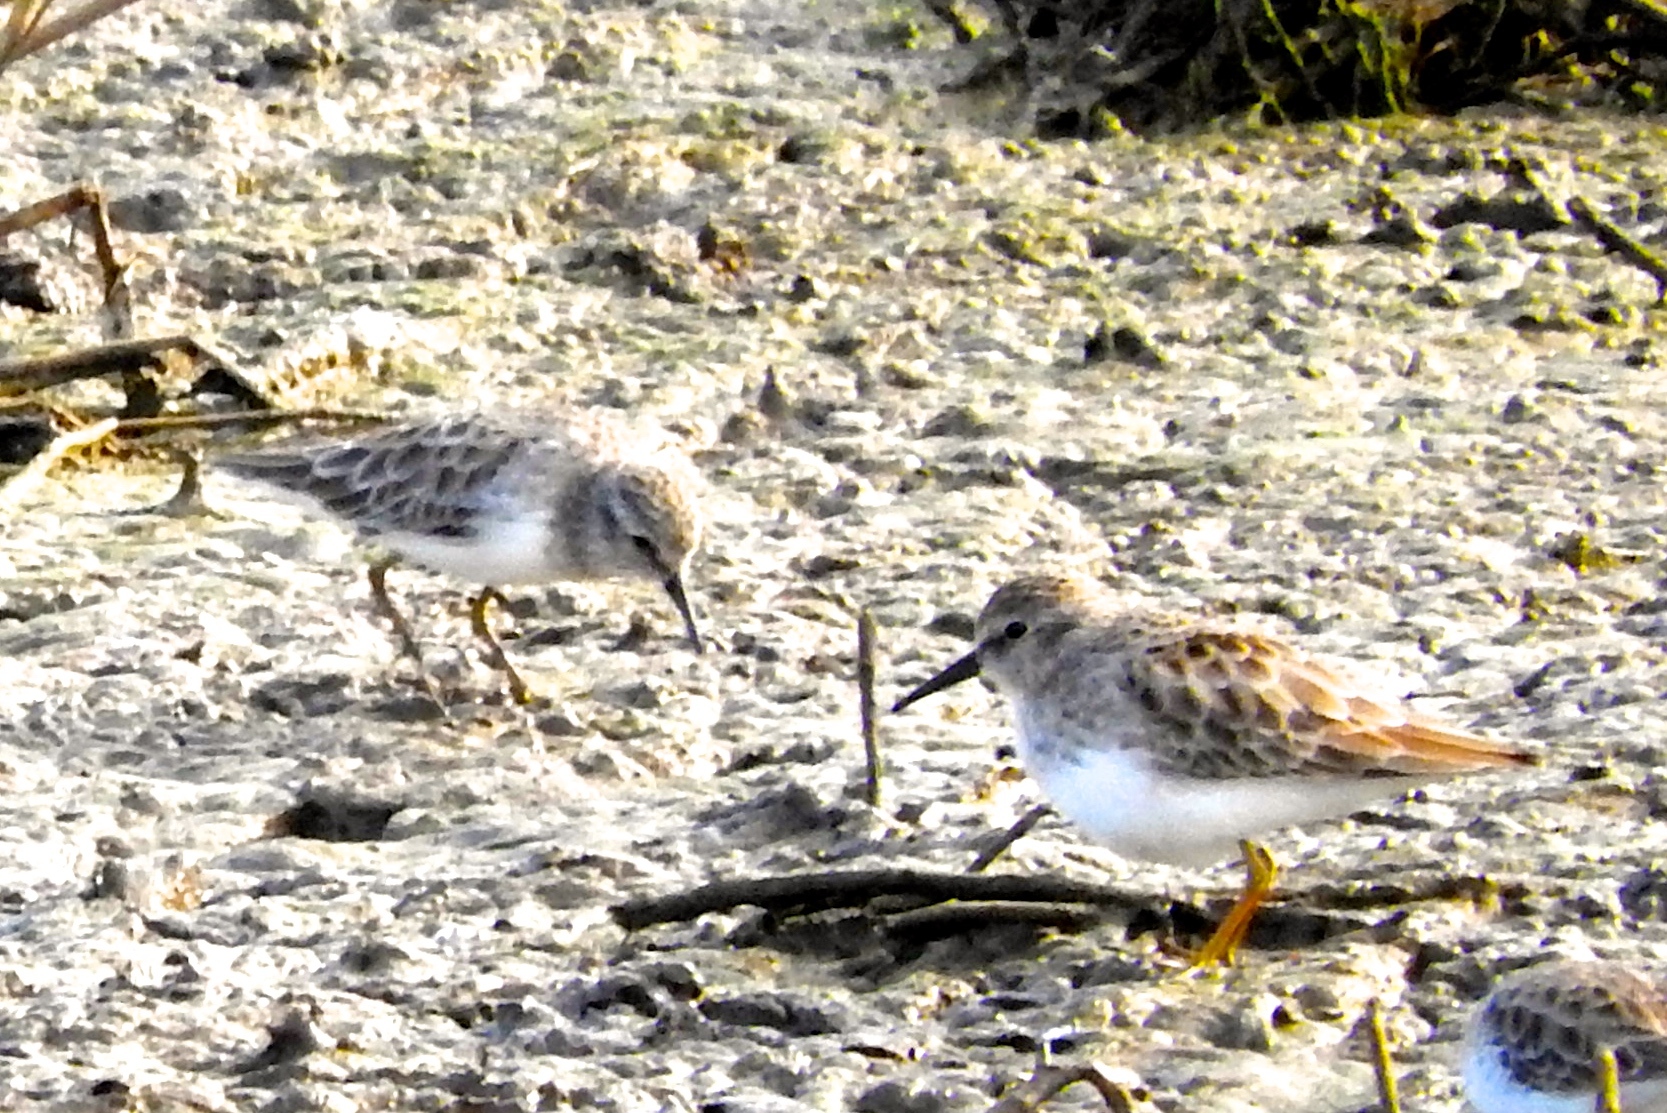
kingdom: Animalia
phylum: Chordata
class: Aves
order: Charadriiformes
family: Scolopacidae
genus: Calidris
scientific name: Calidris minutilla
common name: Least sandpiper
